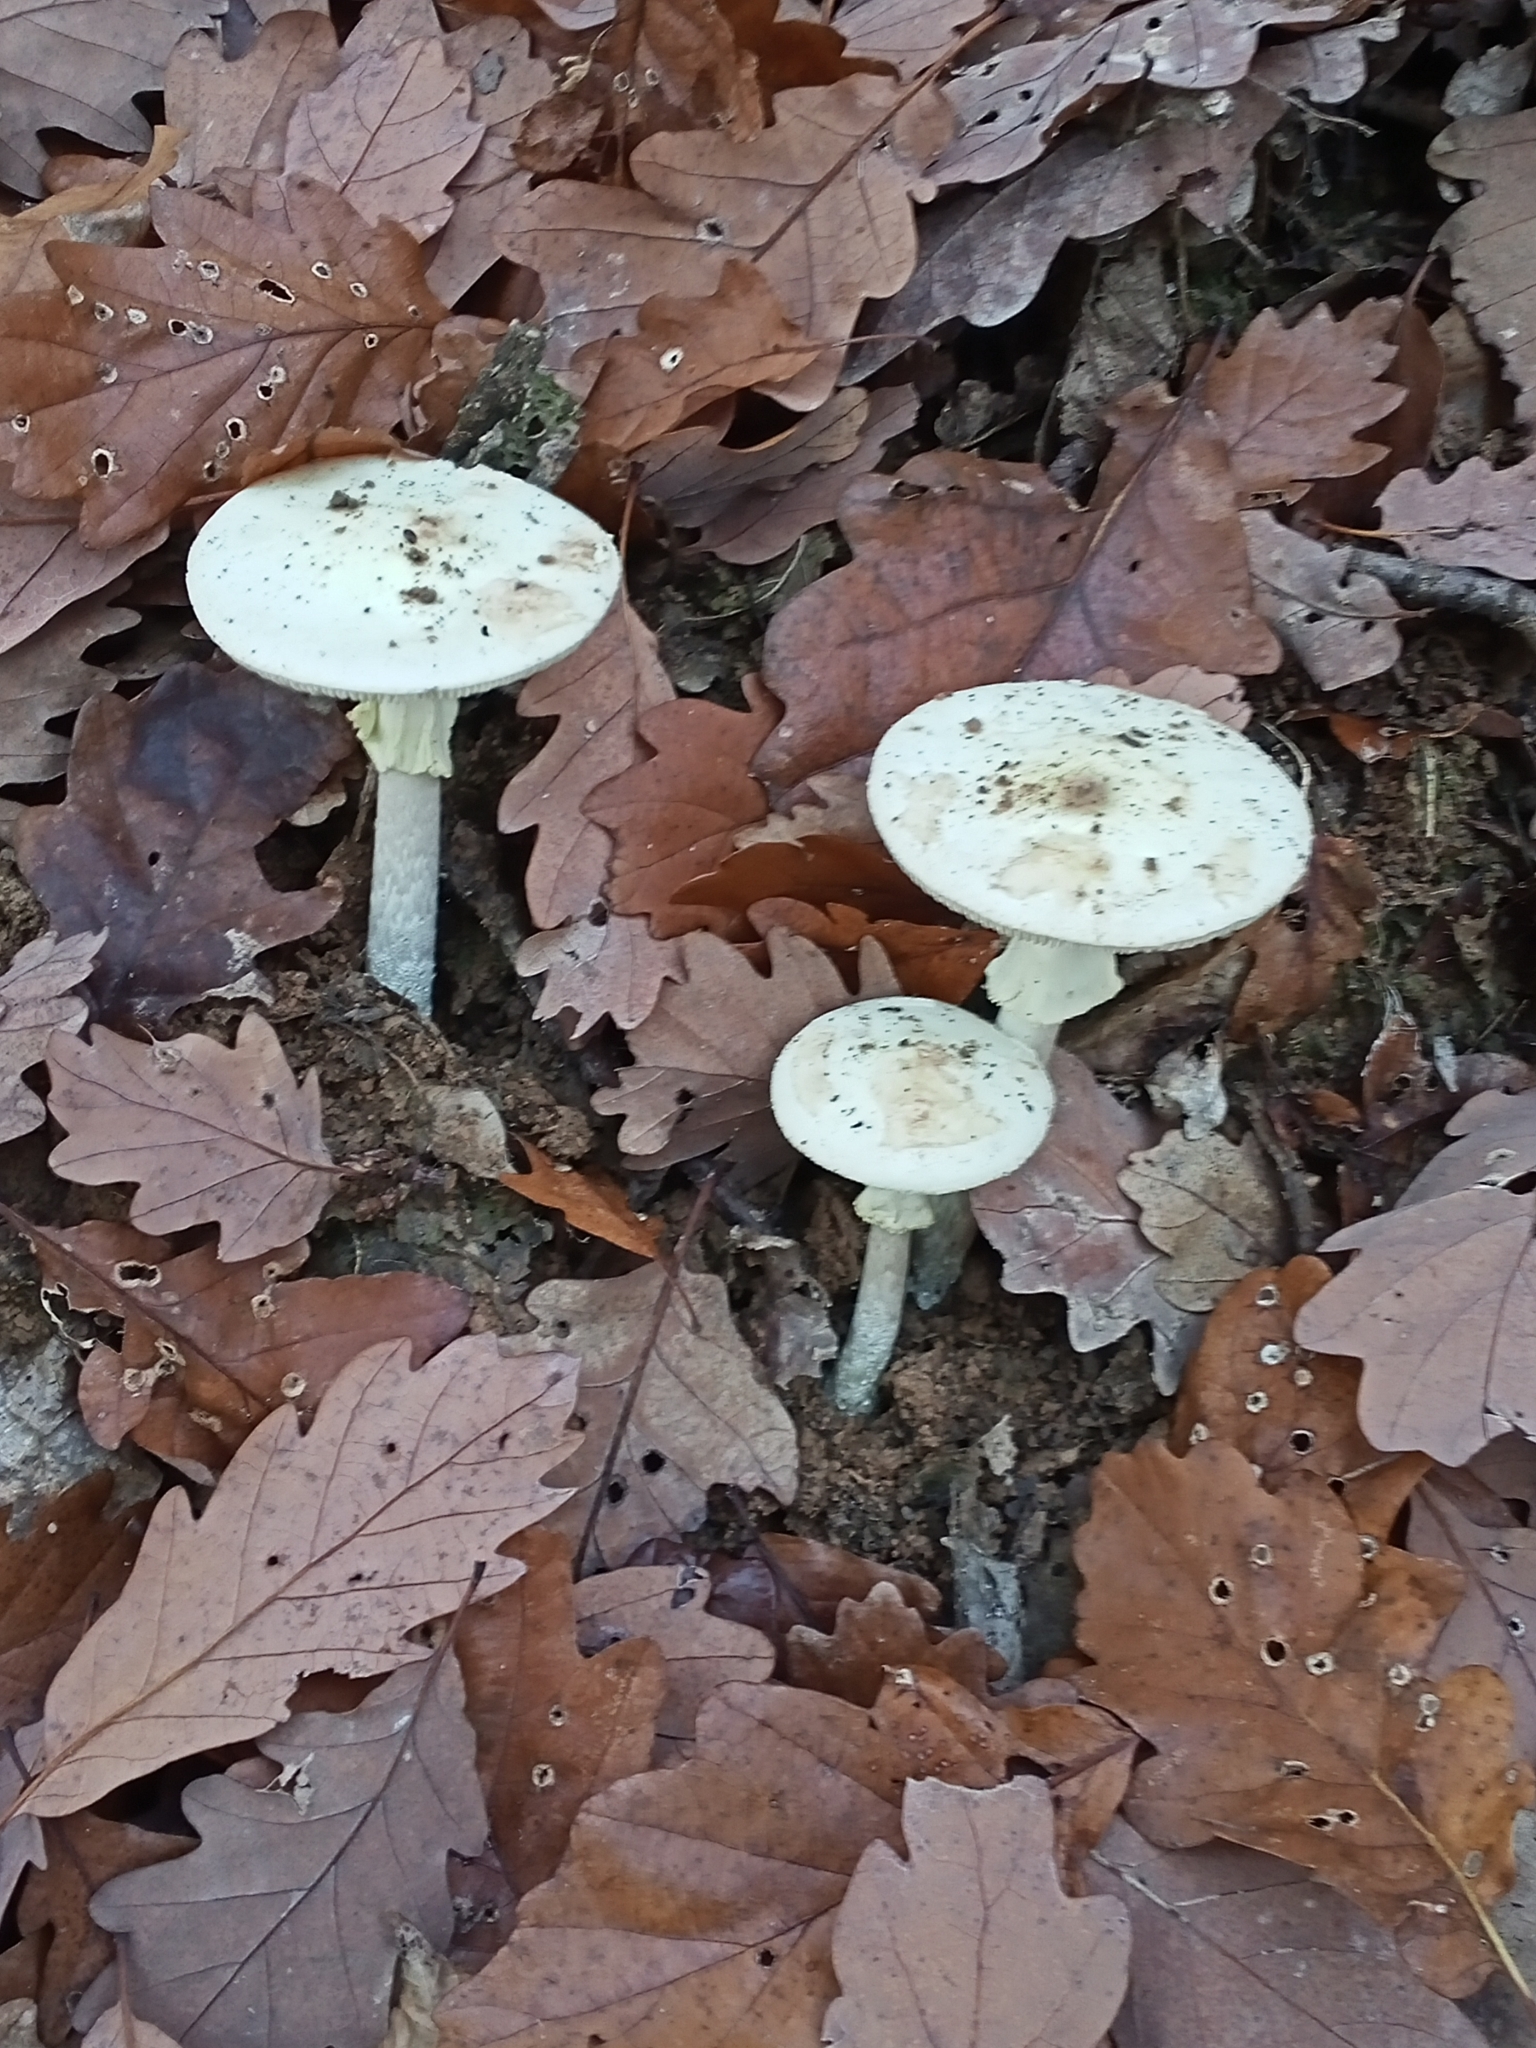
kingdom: Fungi
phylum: Basidiomycota
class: Agaricomycetes
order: Agaricales
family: Amanitaceae
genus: Amanita
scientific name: Amanita citrina
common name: False death-cap
